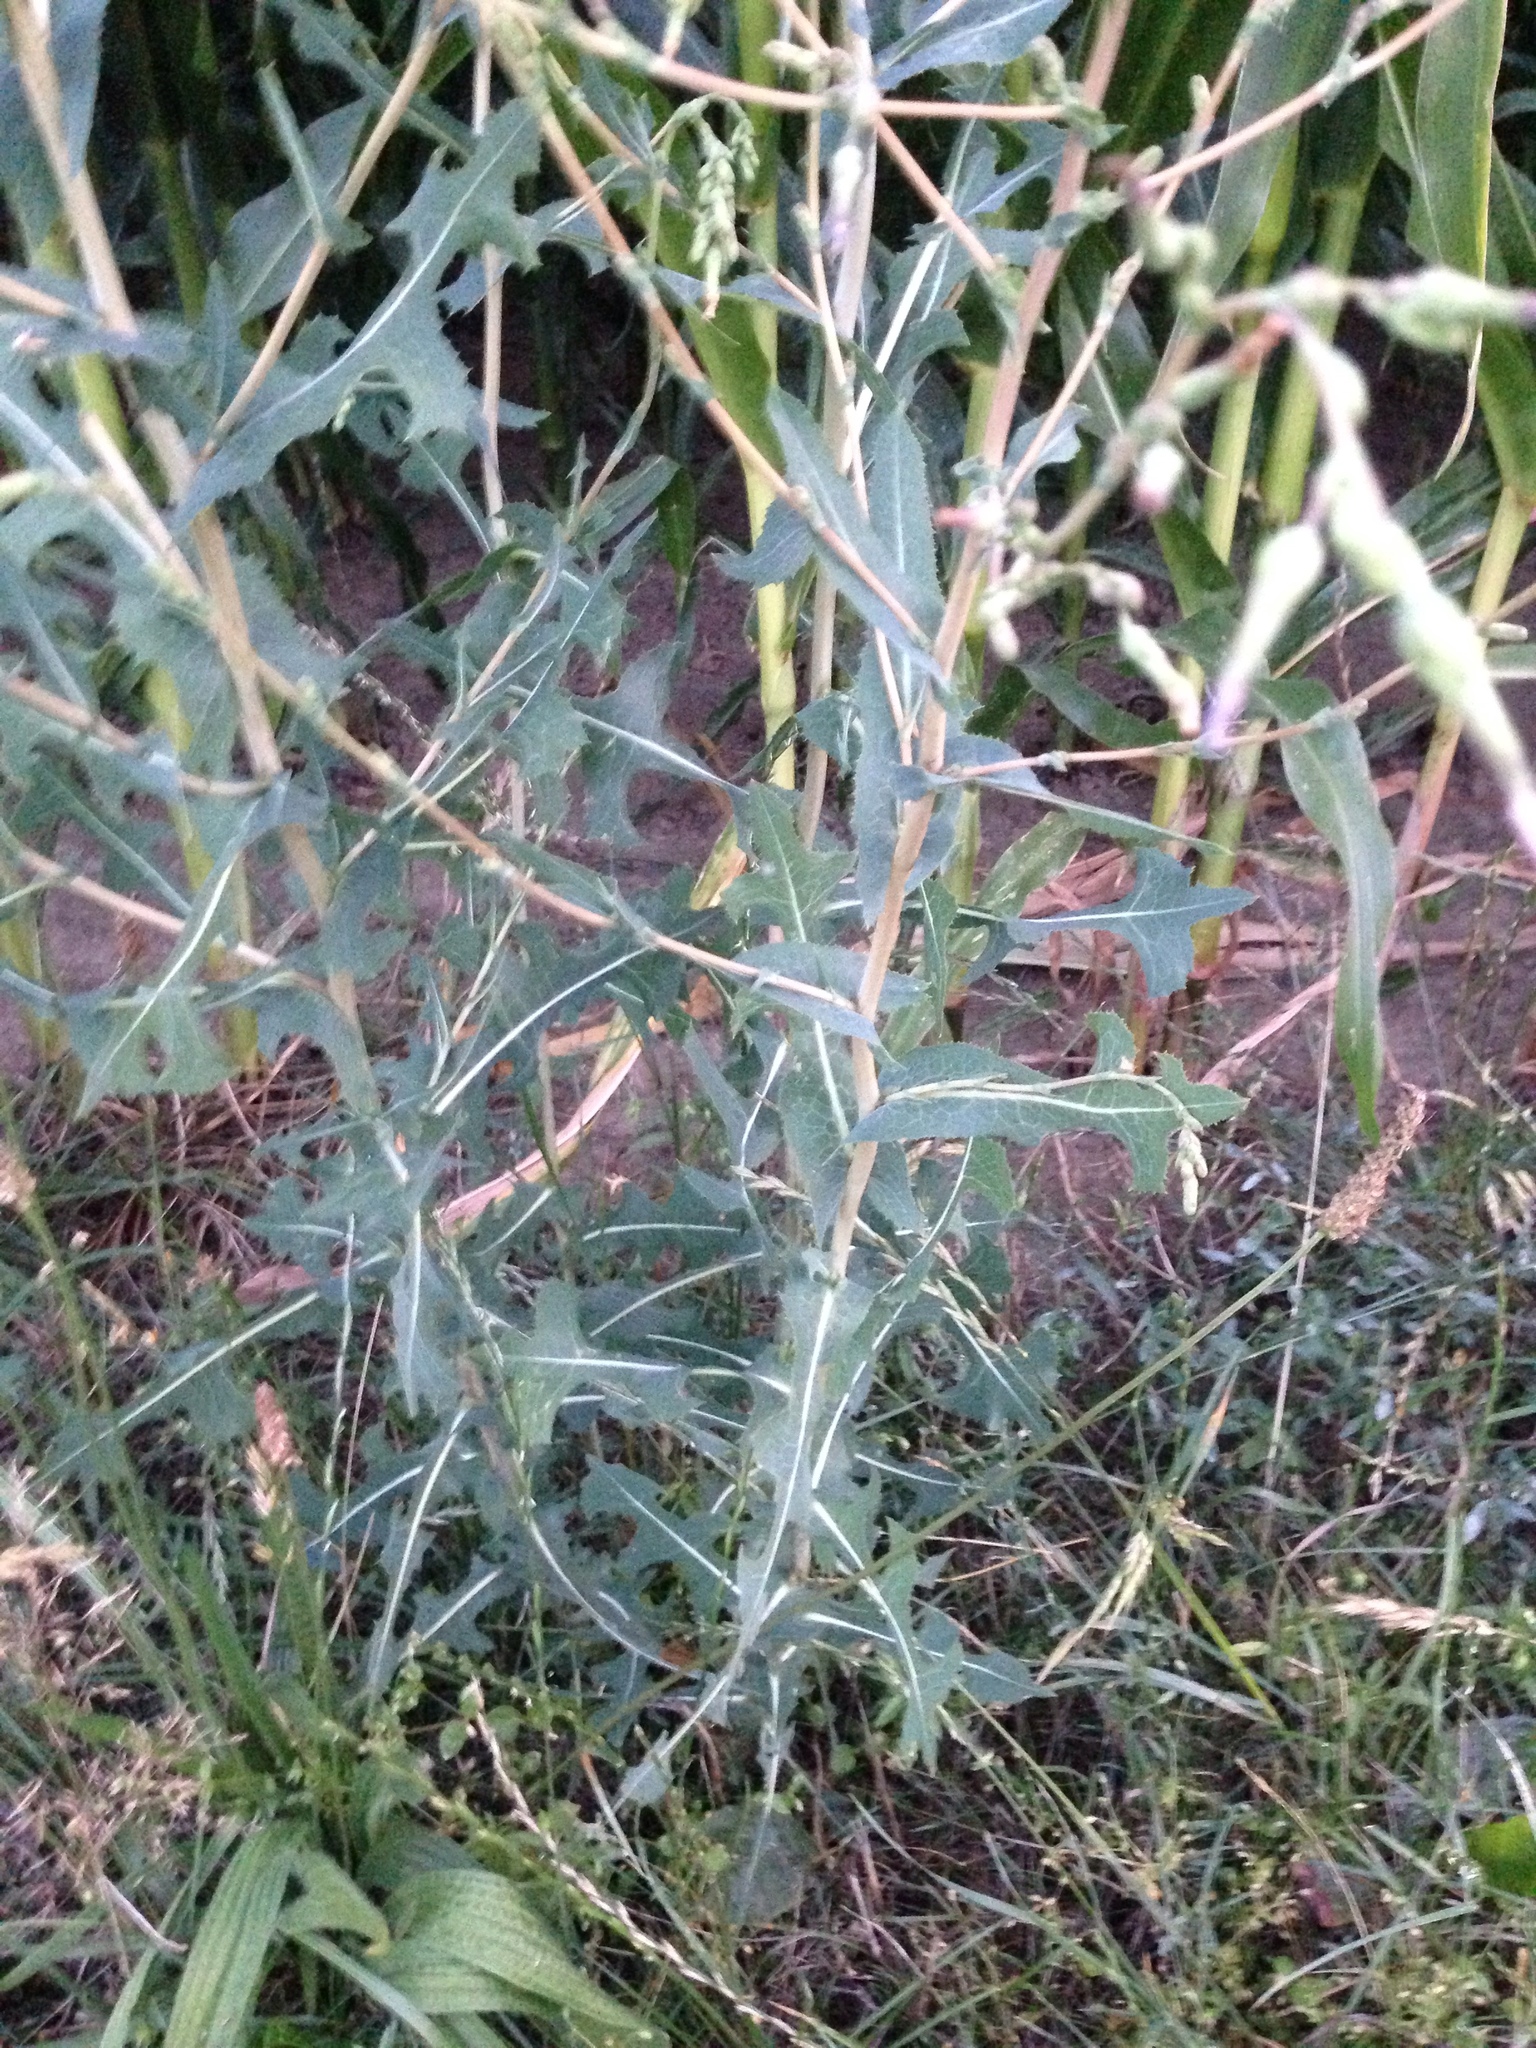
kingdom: Plantae
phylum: Tracheophyta
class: Magnoliopsida
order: Asterales
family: Asteraceae
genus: Lactuca
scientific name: Lactuca serriola
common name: Prickly lettuce
